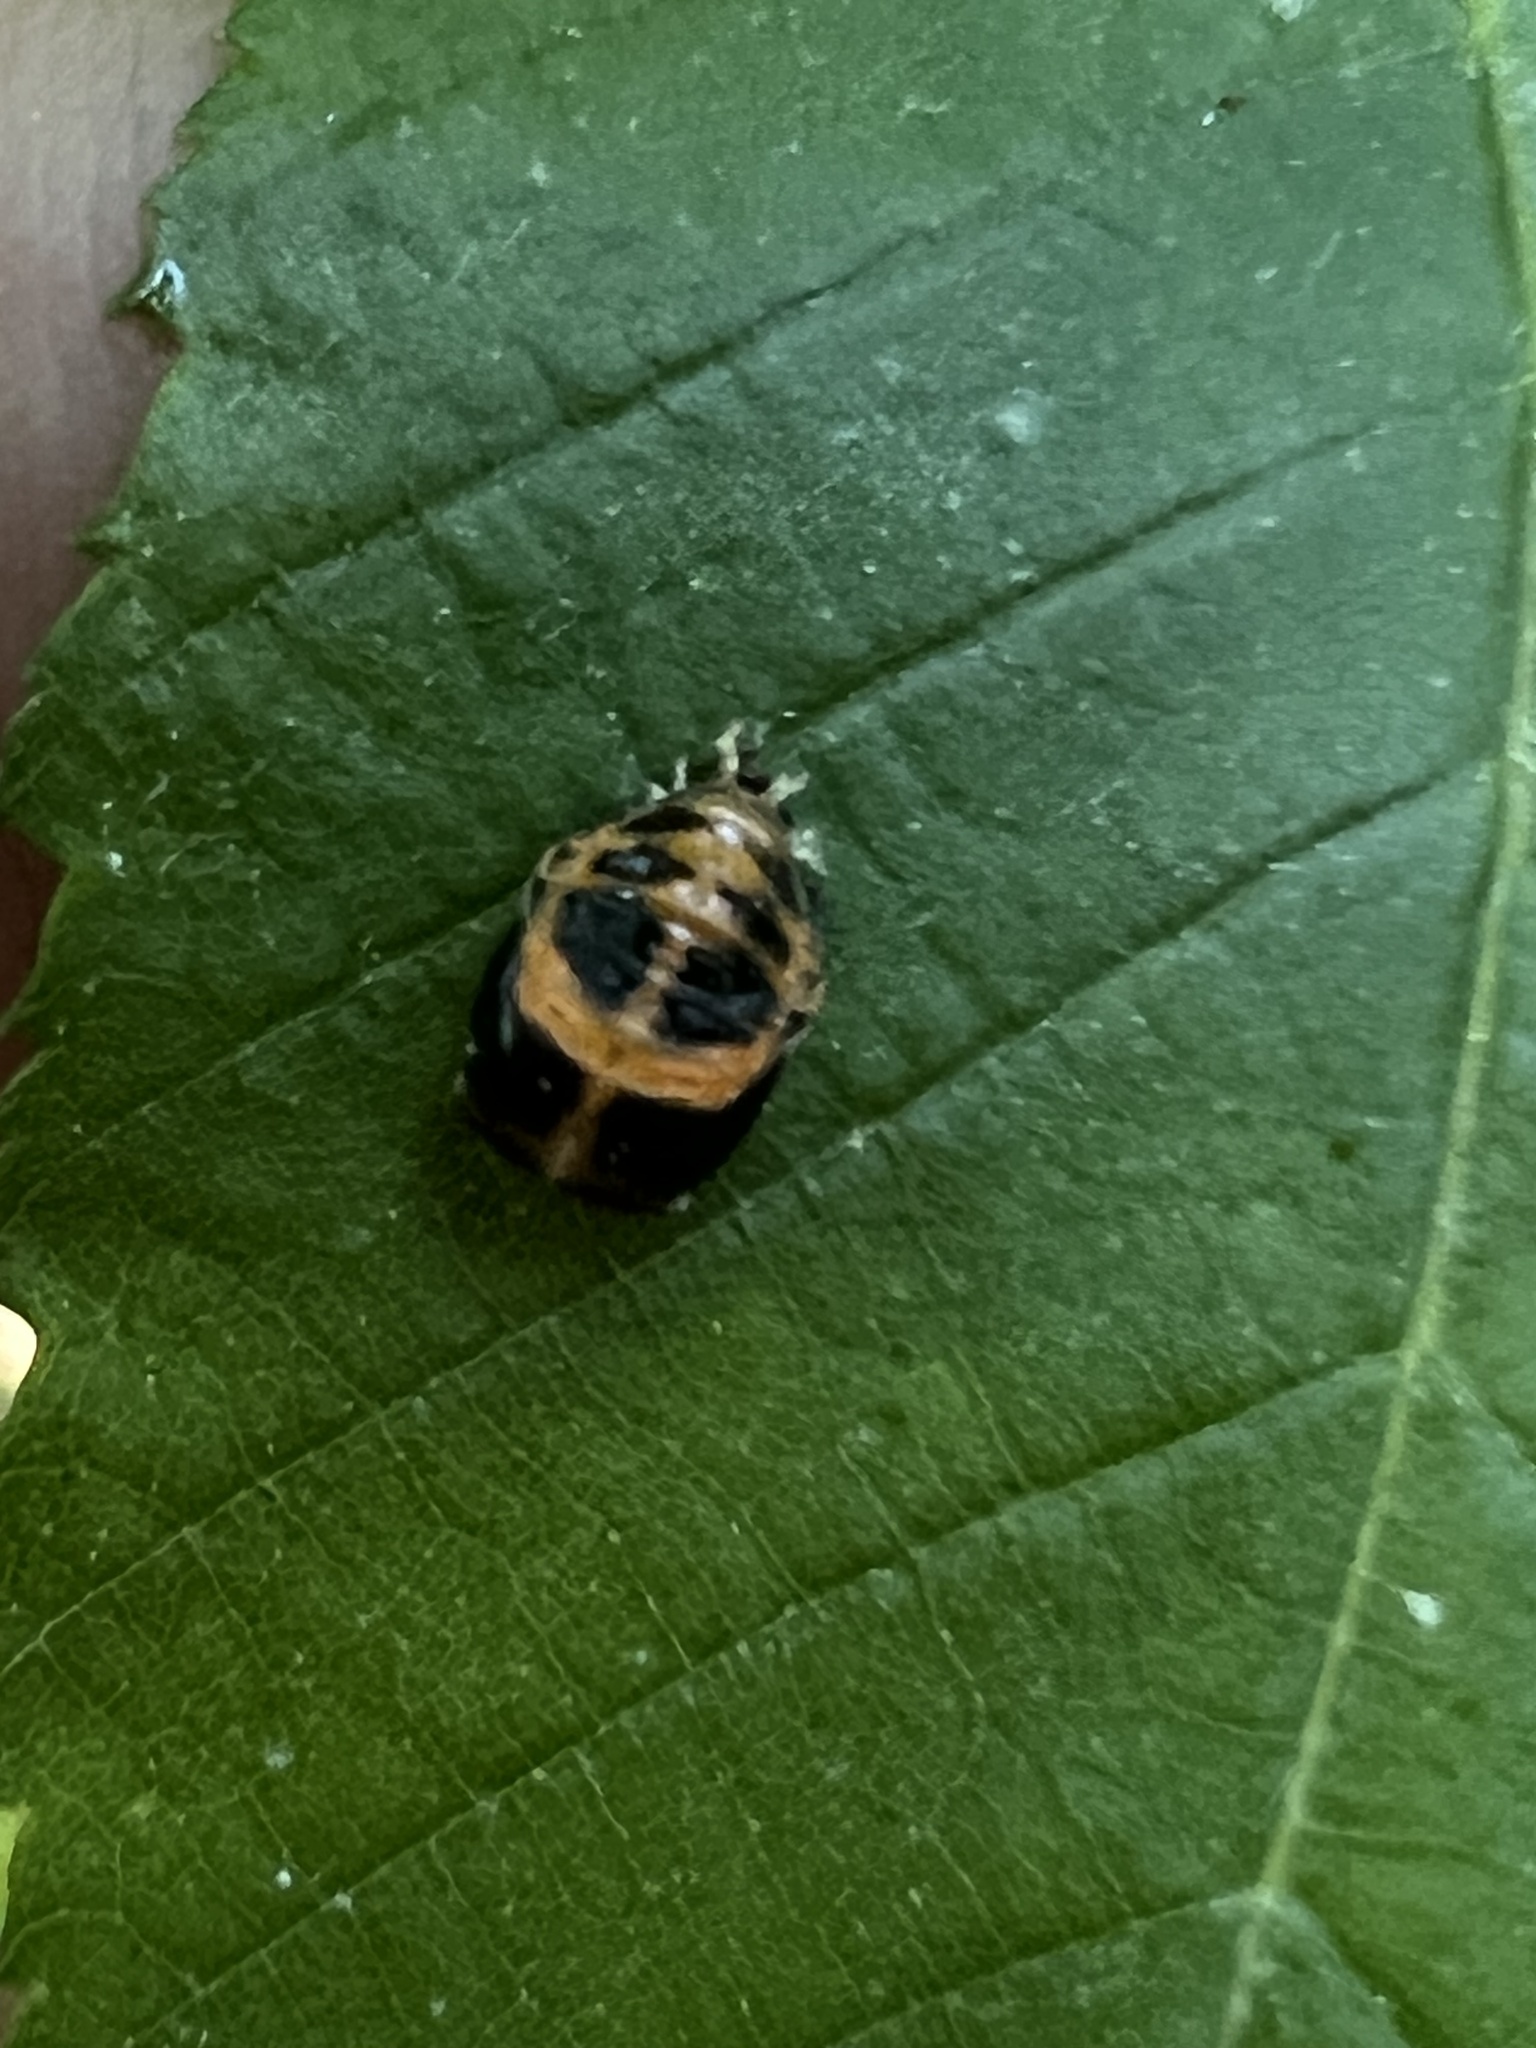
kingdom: Animalia
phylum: Arthropoda
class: Insecta
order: Coleoptera
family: Coccinellidae
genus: Harmonia
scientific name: Harmonia axyridis
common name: Harlequin ladybird
